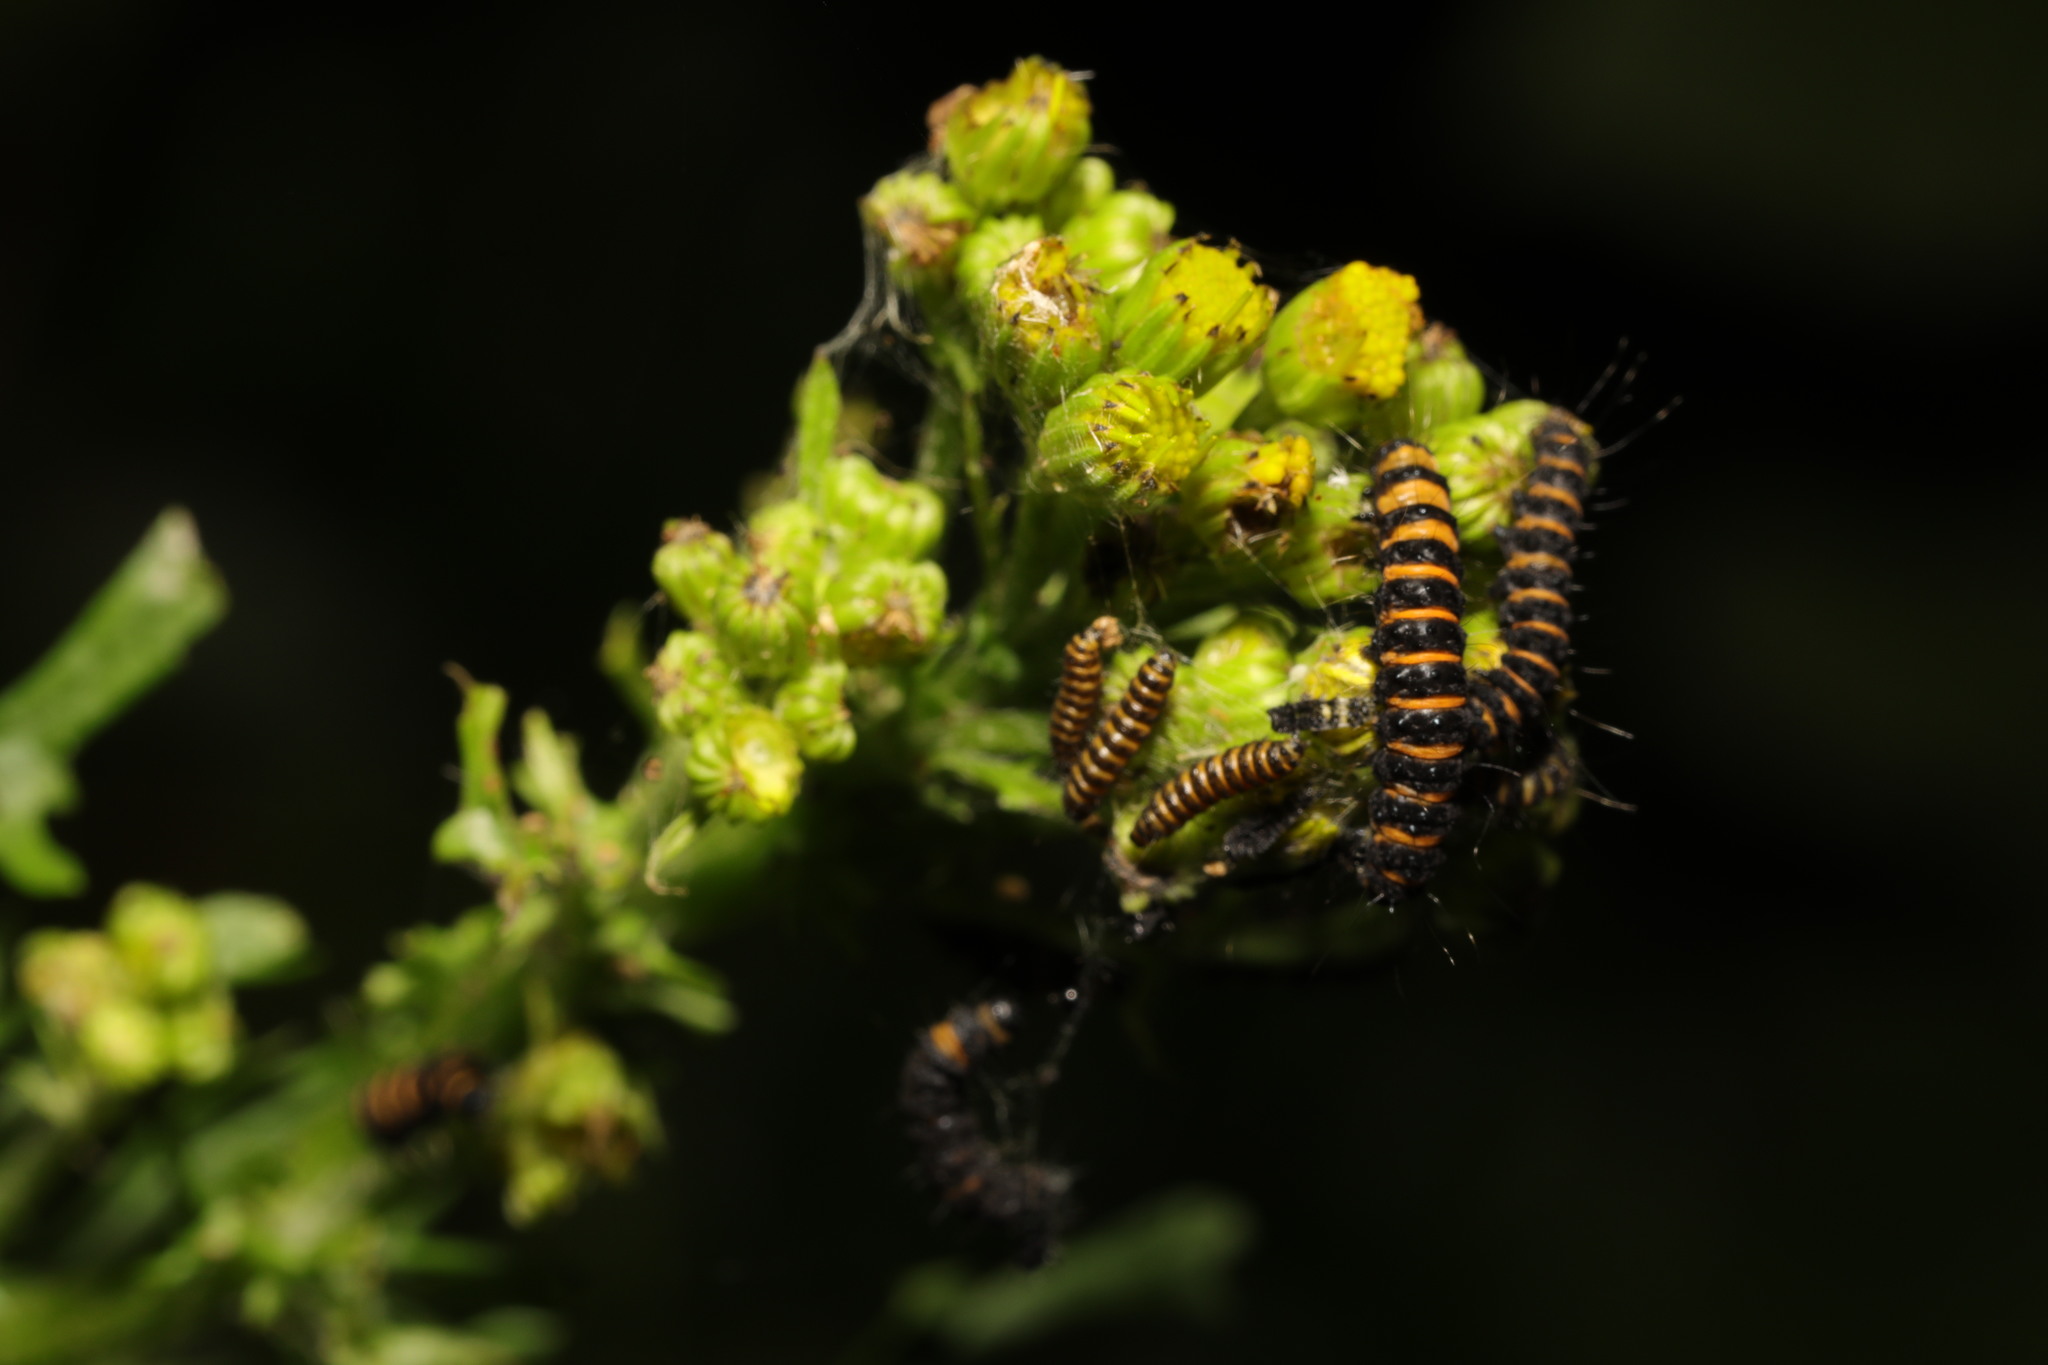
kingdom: Animalia
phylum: Arthropoda
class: Insecta
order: Lepidoptera
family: Erebidae
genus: Tyria
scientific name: Tyria jacobaeae
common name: Cinnabar
